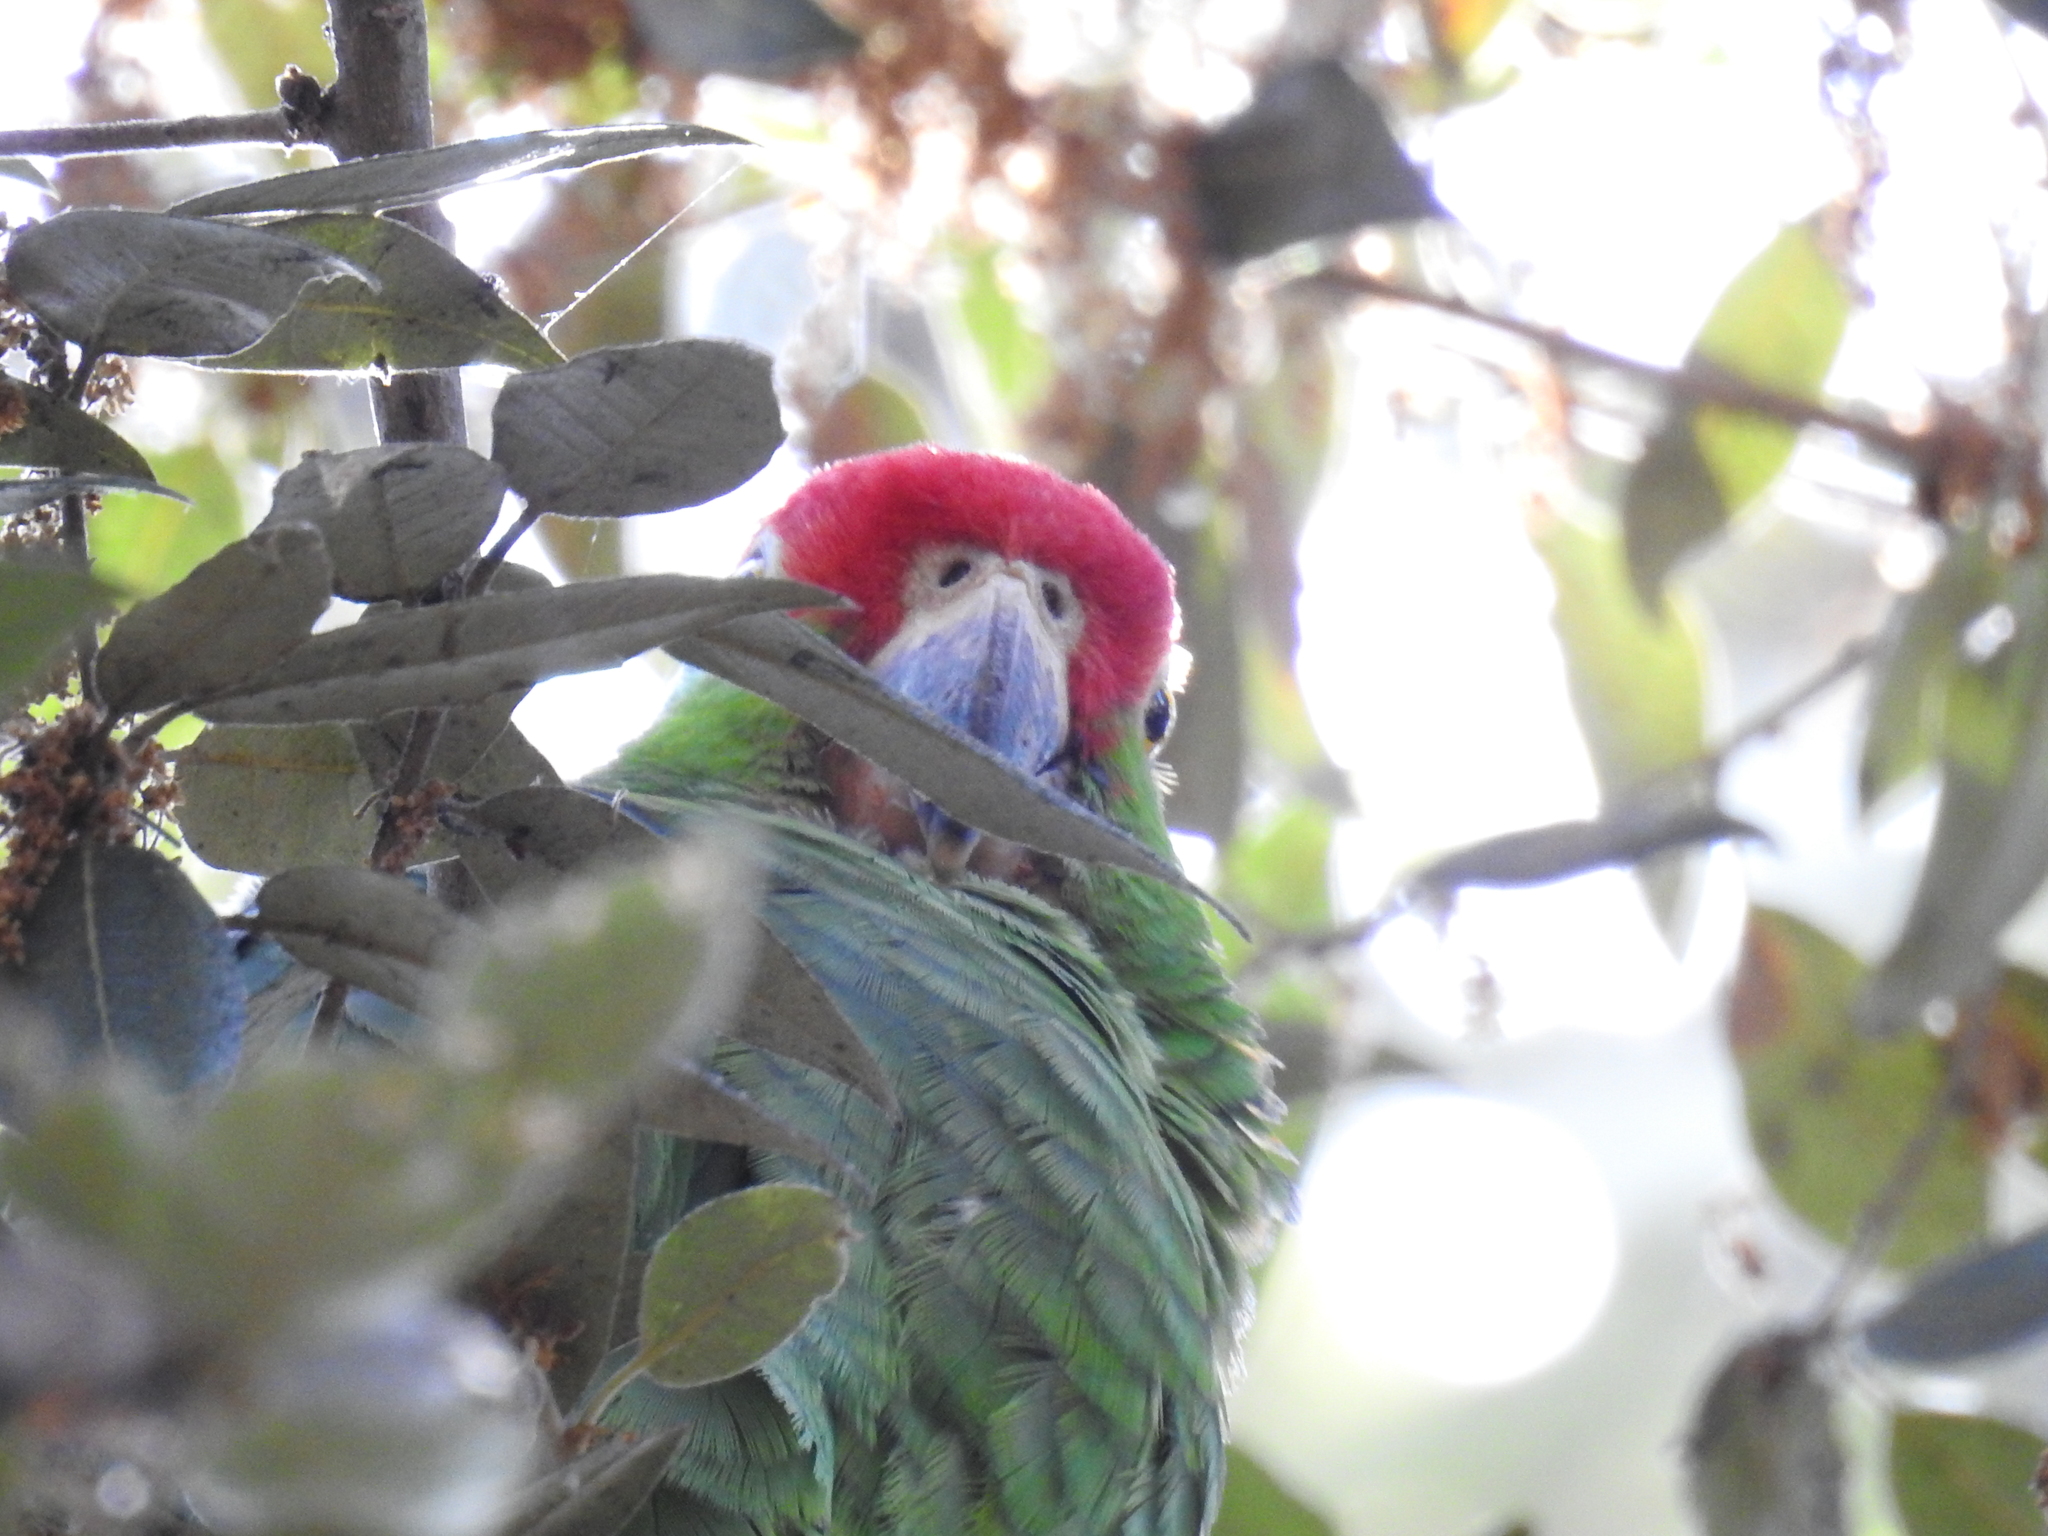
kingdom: Animalia
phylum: Chordata
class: Aves
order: Psittaciformes
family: Psittacidae
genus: Amazona
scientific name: Amazona viridigenalis
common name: Red-crowned amazon
